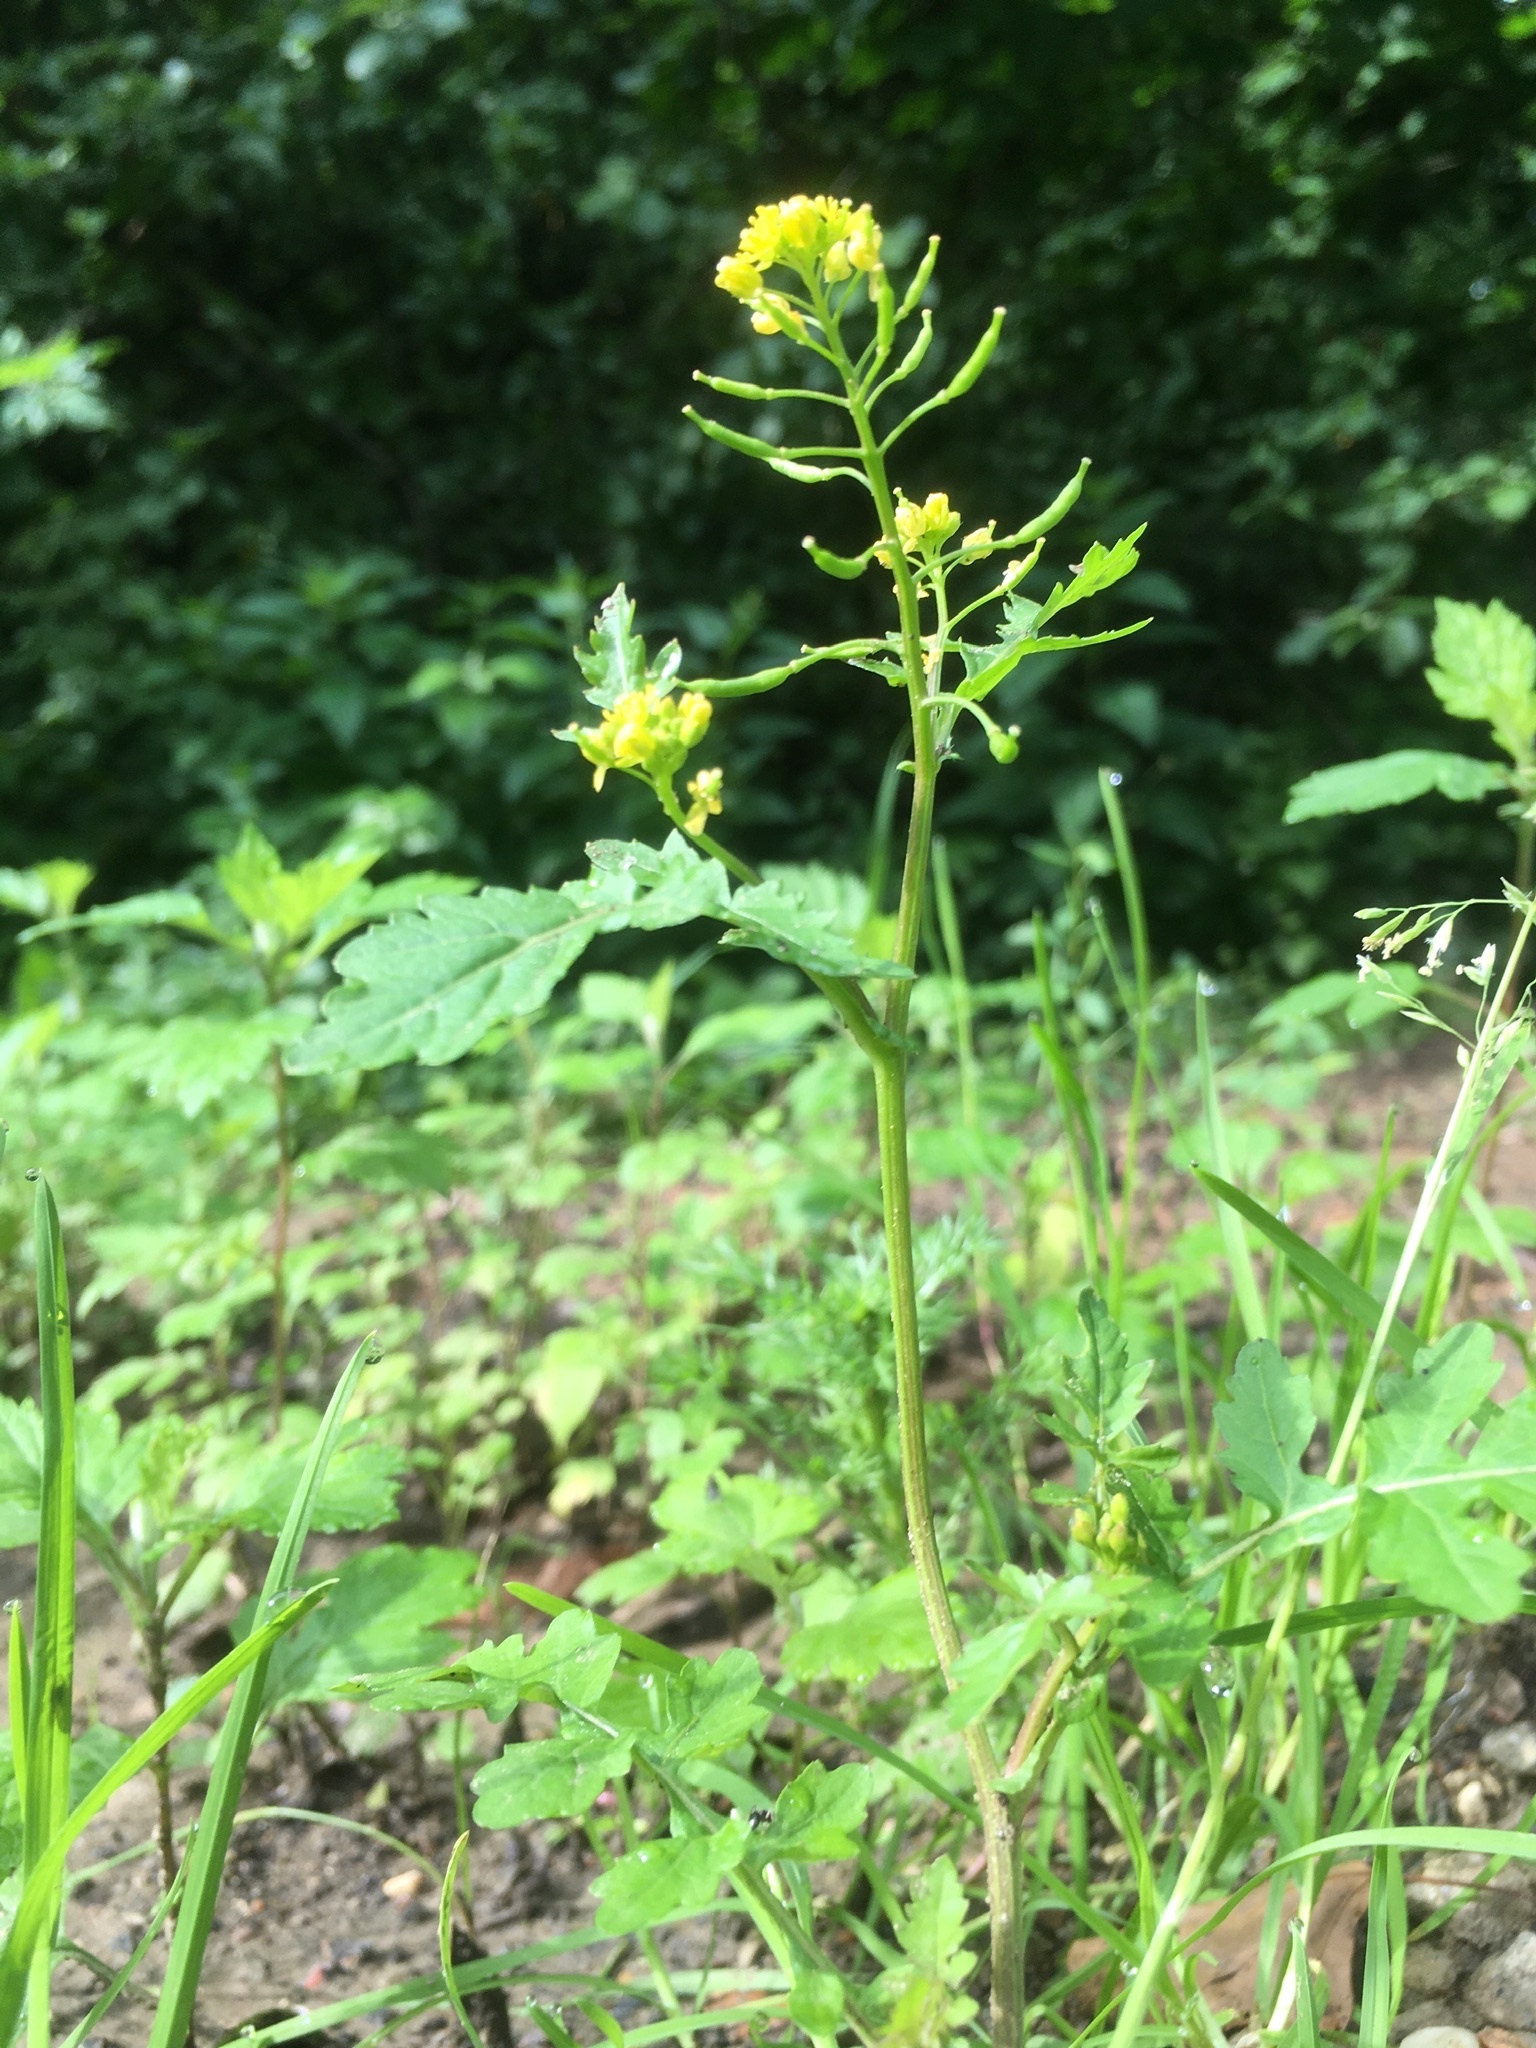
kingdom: Plantae
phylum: Tracheophyta
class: Magnoliopsida
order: Brassicales
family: Brassicaceae
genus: Rorippa
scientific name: Rorippa palustris
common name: Marsh yellow-cress
